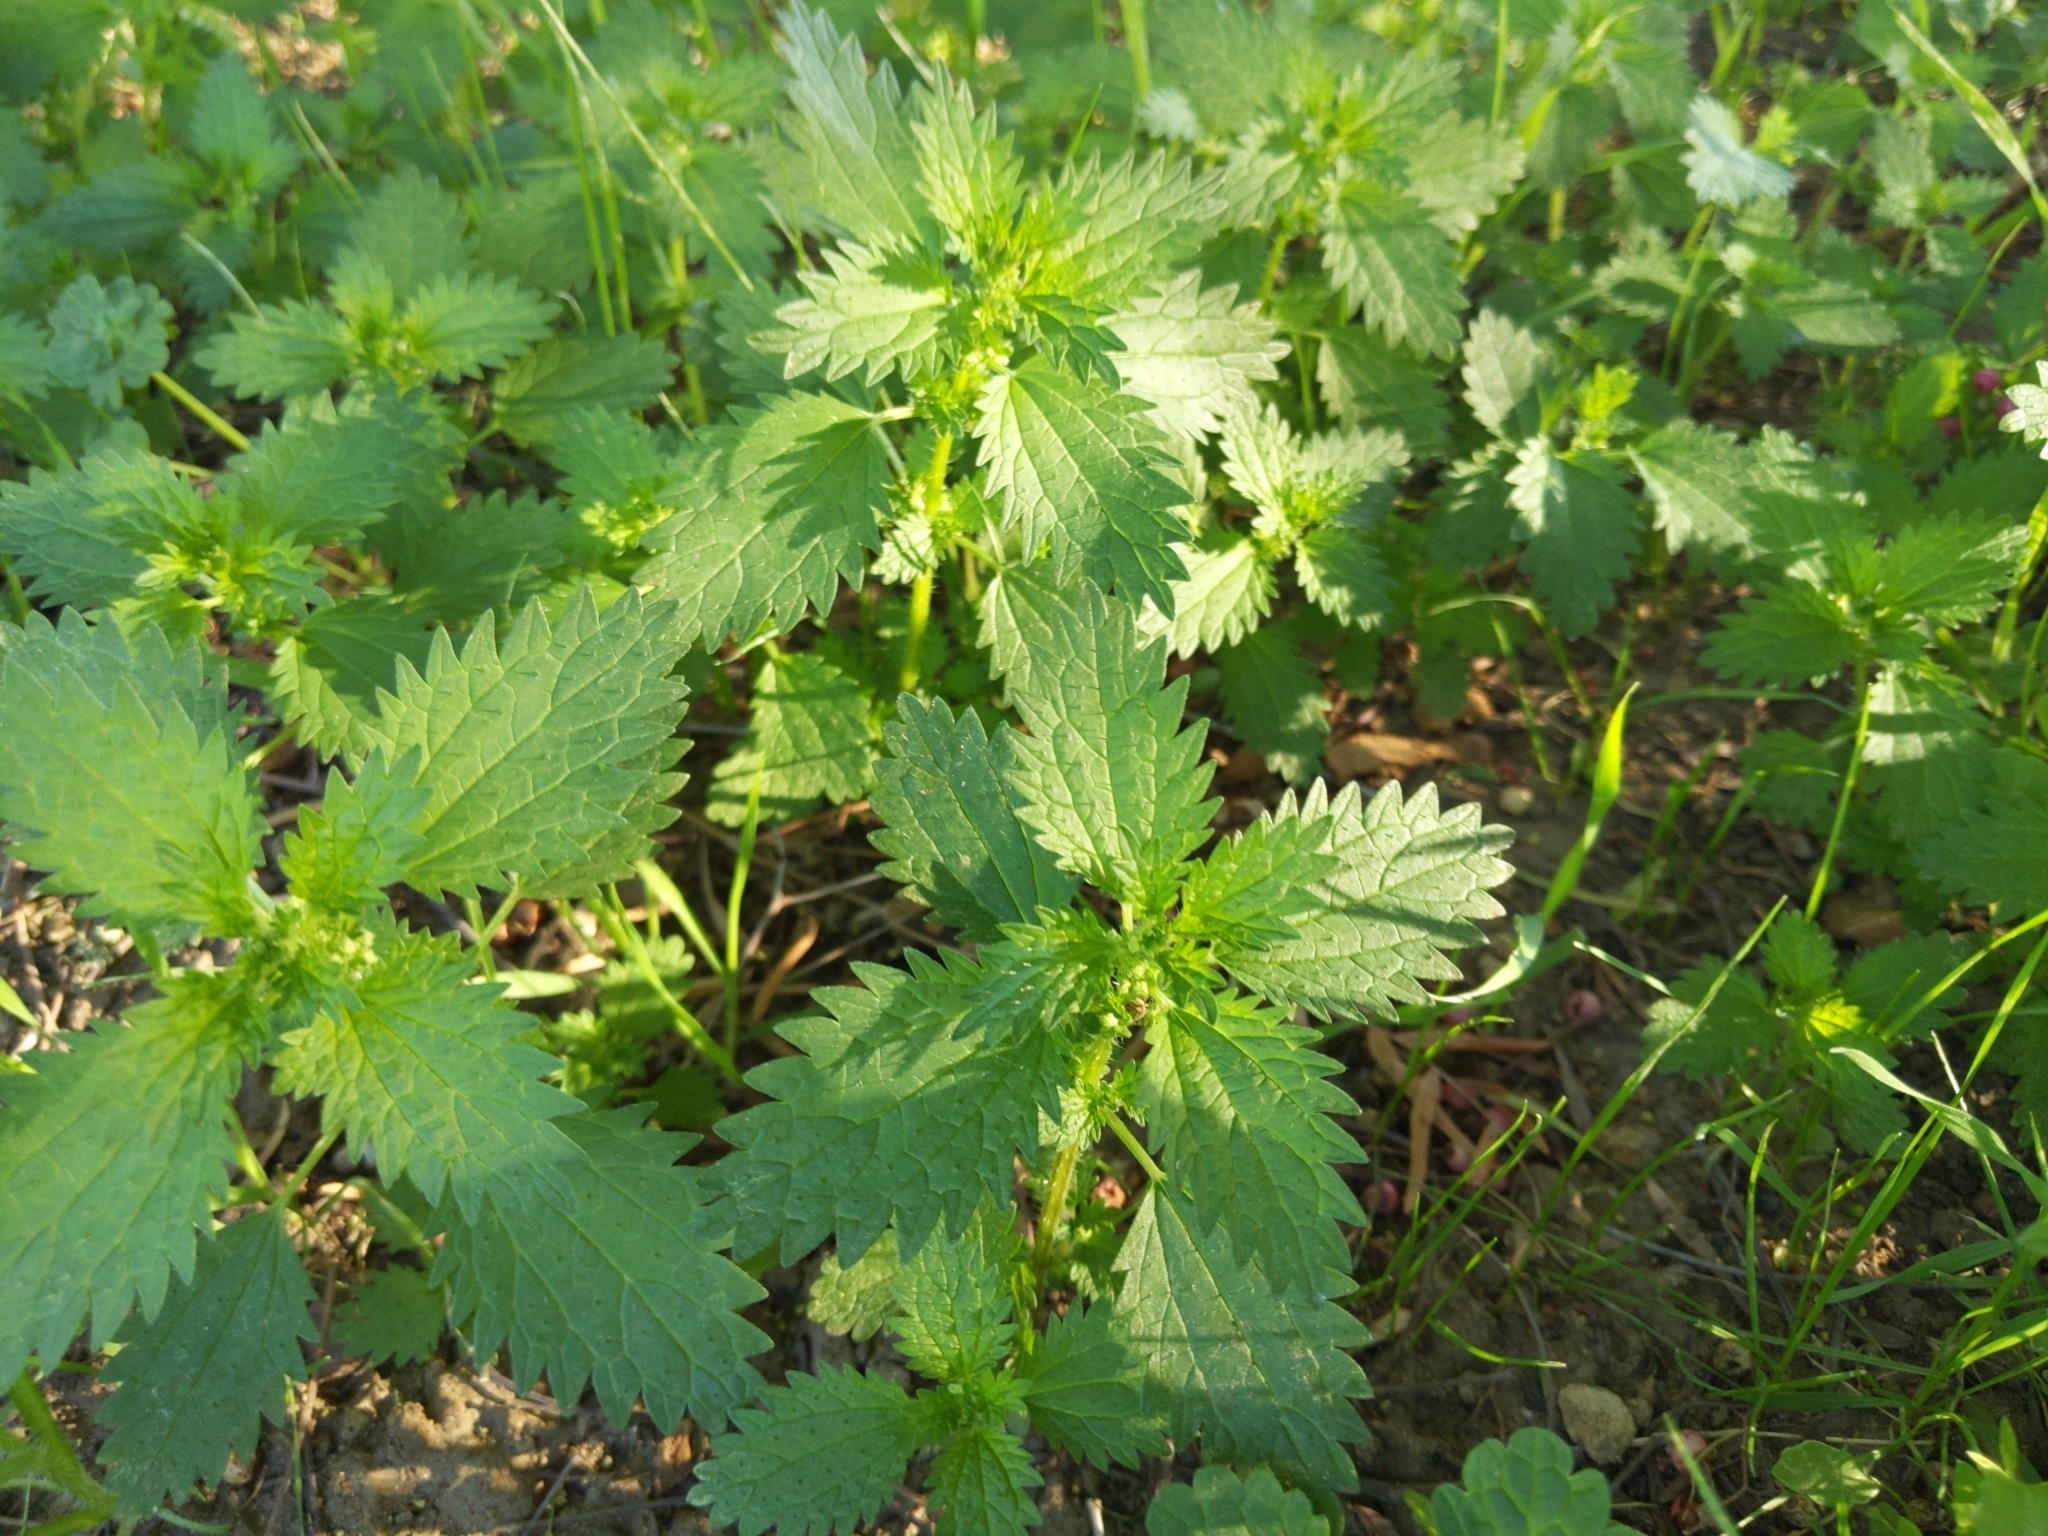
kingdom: Plantae
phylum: Tracheophyta
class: Magnoliopsida
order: Rosales
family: Urticaceae
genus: Urtica
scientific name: Urtica urens
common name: Dwarf nettle
